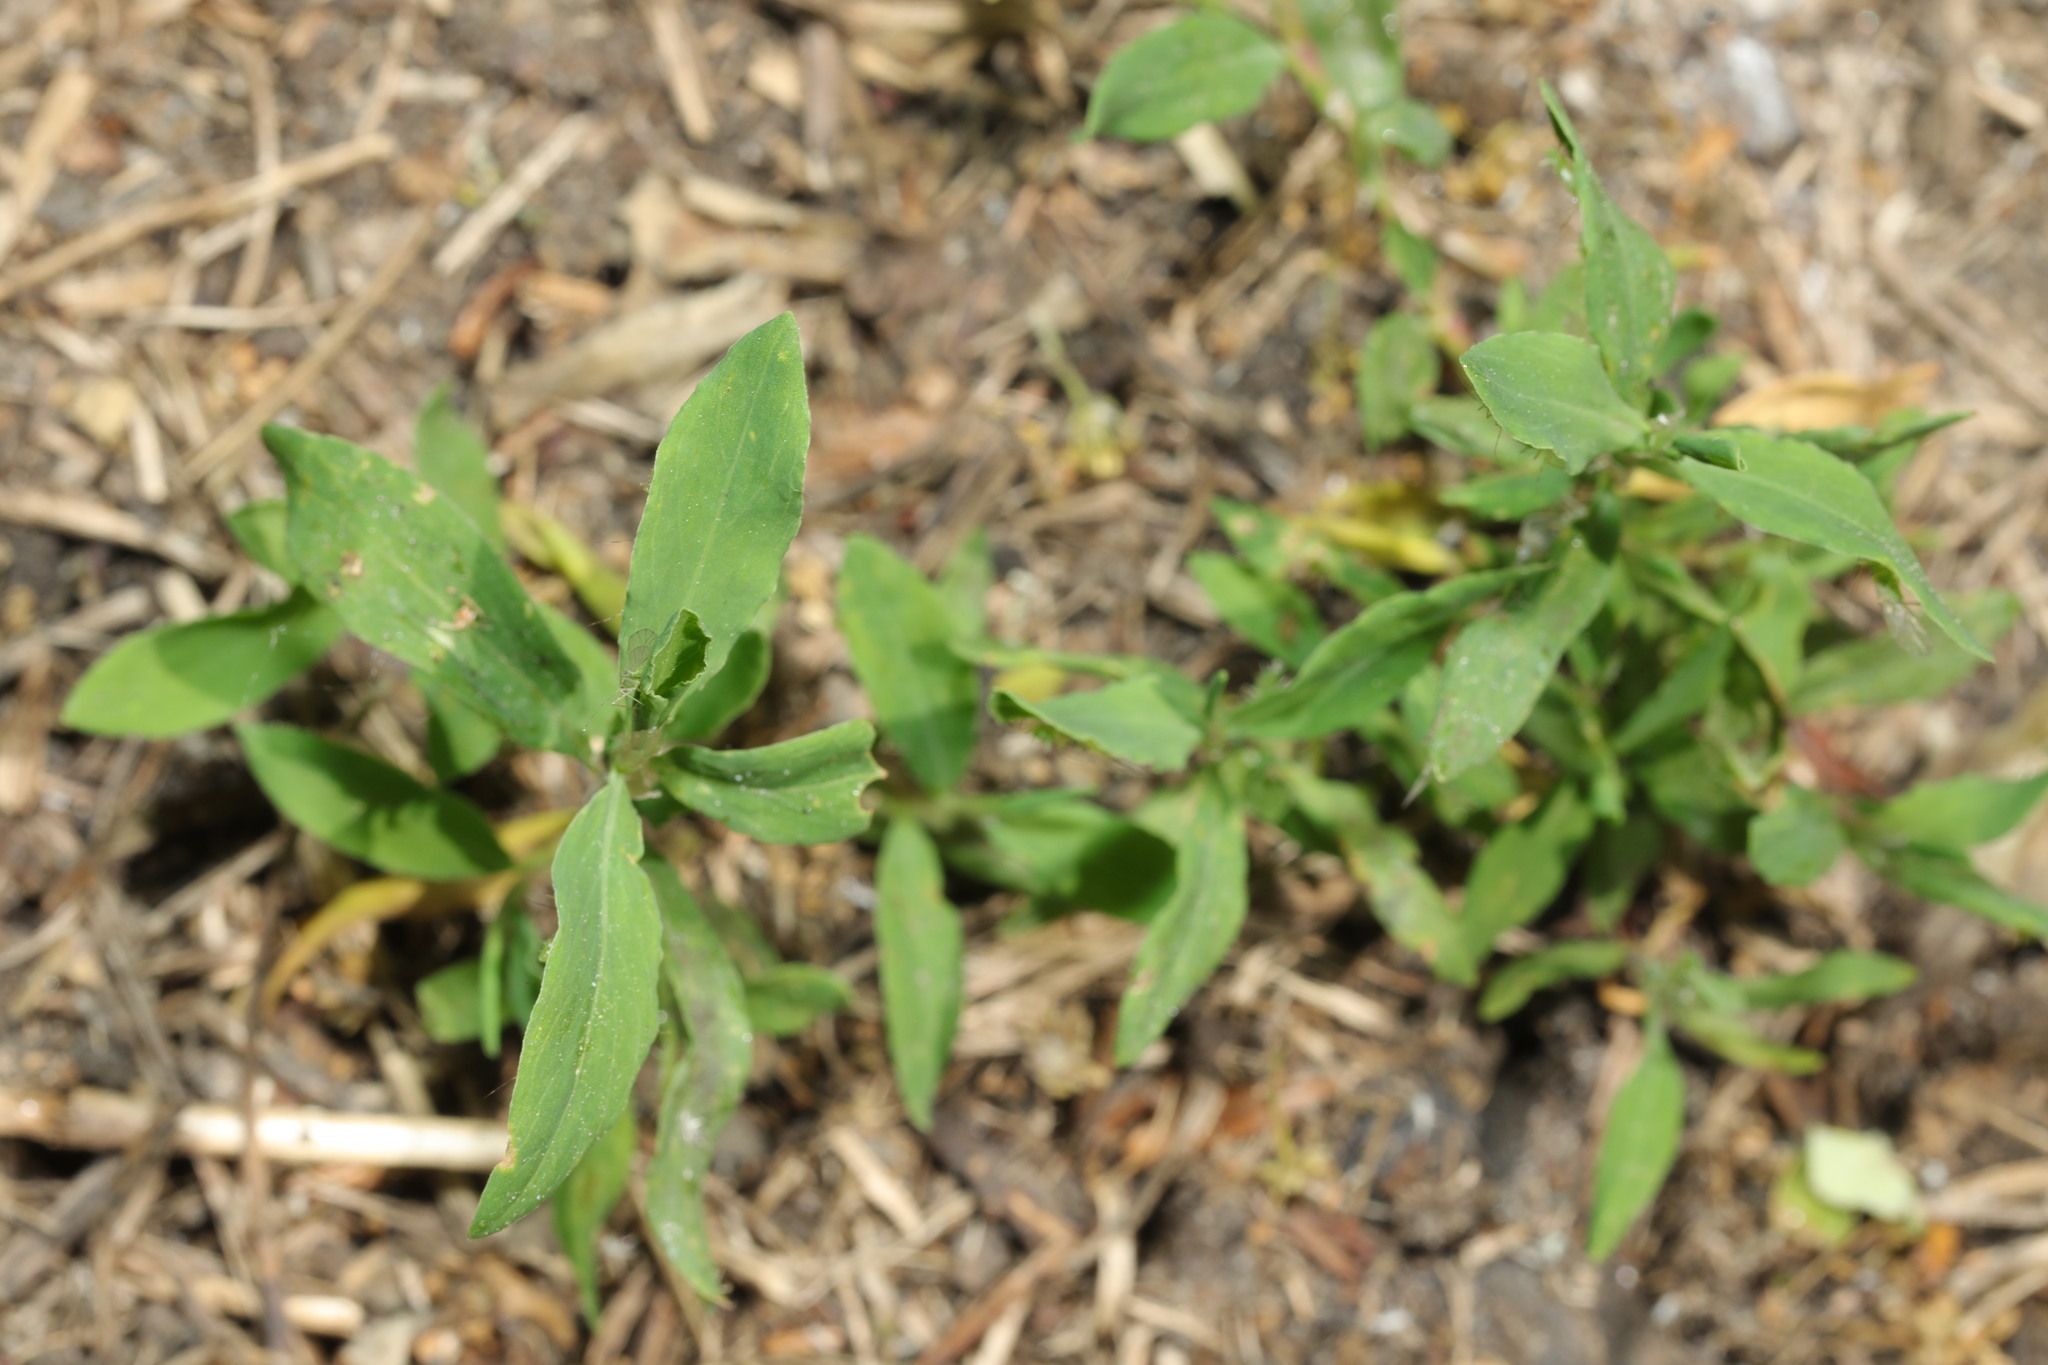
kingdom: Plantae
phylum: Tracheophyta
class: Magnoliopsida
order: Caryophyllales
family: Polygonaceae
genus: Polygonum
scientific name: Polygonum aviculare
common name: Prostrate knotweed
